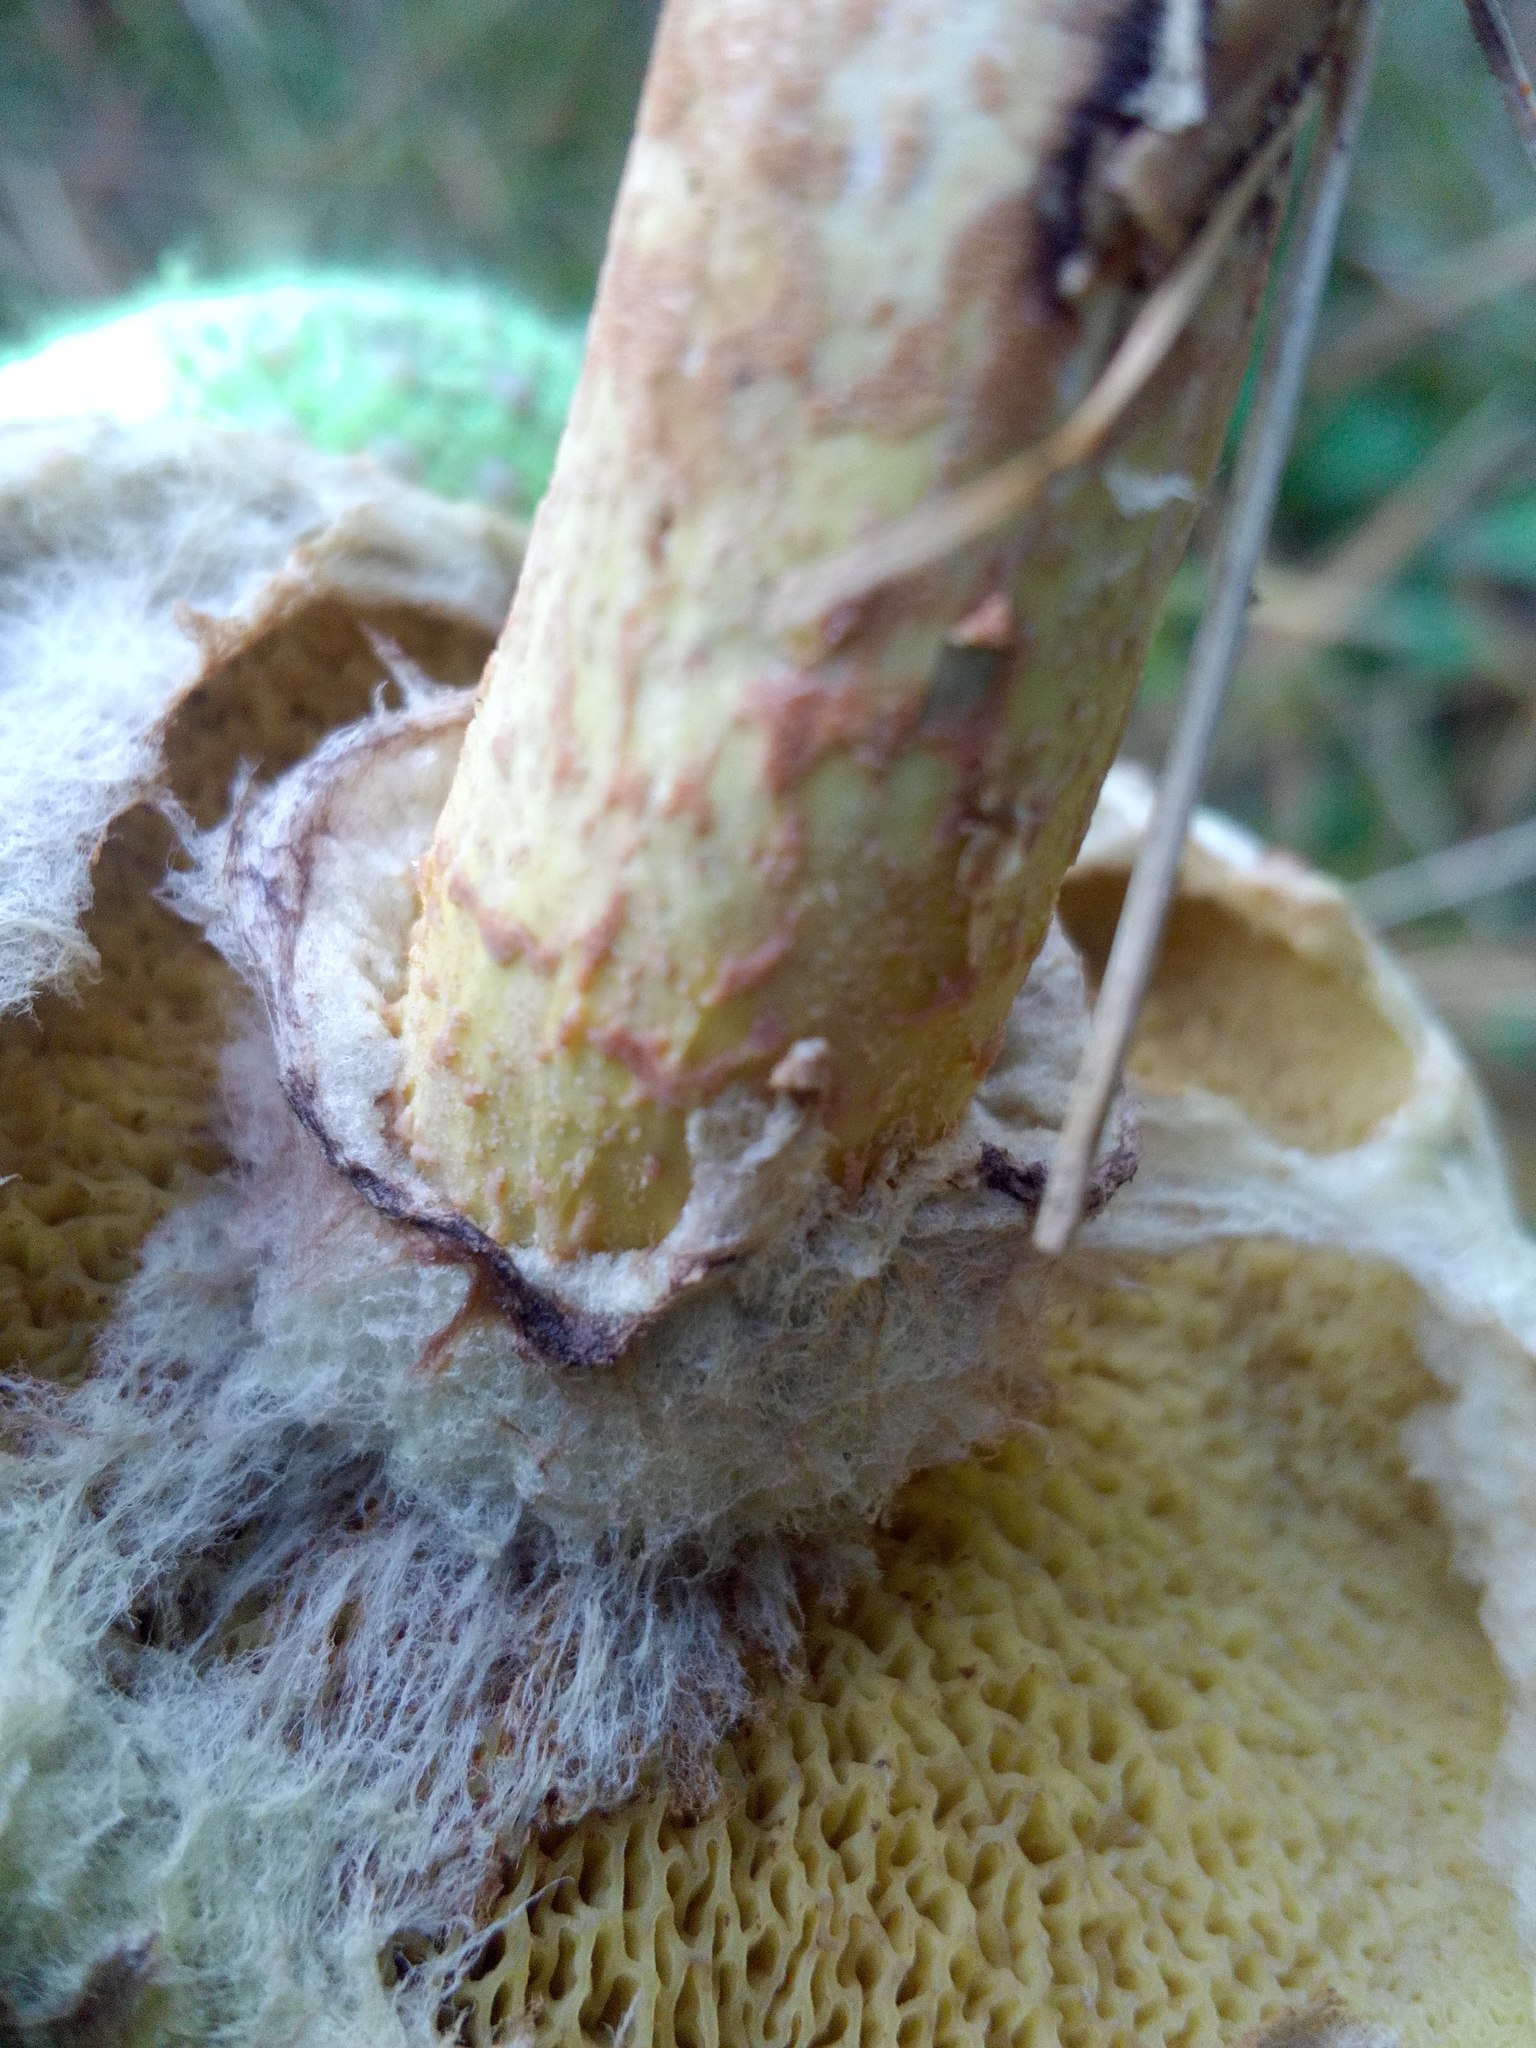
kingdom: Fungi
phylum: Basidiomycota
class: Agaricomycetes
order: Boletales
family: Suillaceae
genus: Suillus
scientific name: Suillus americanus
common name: Chicken fat mushroom
